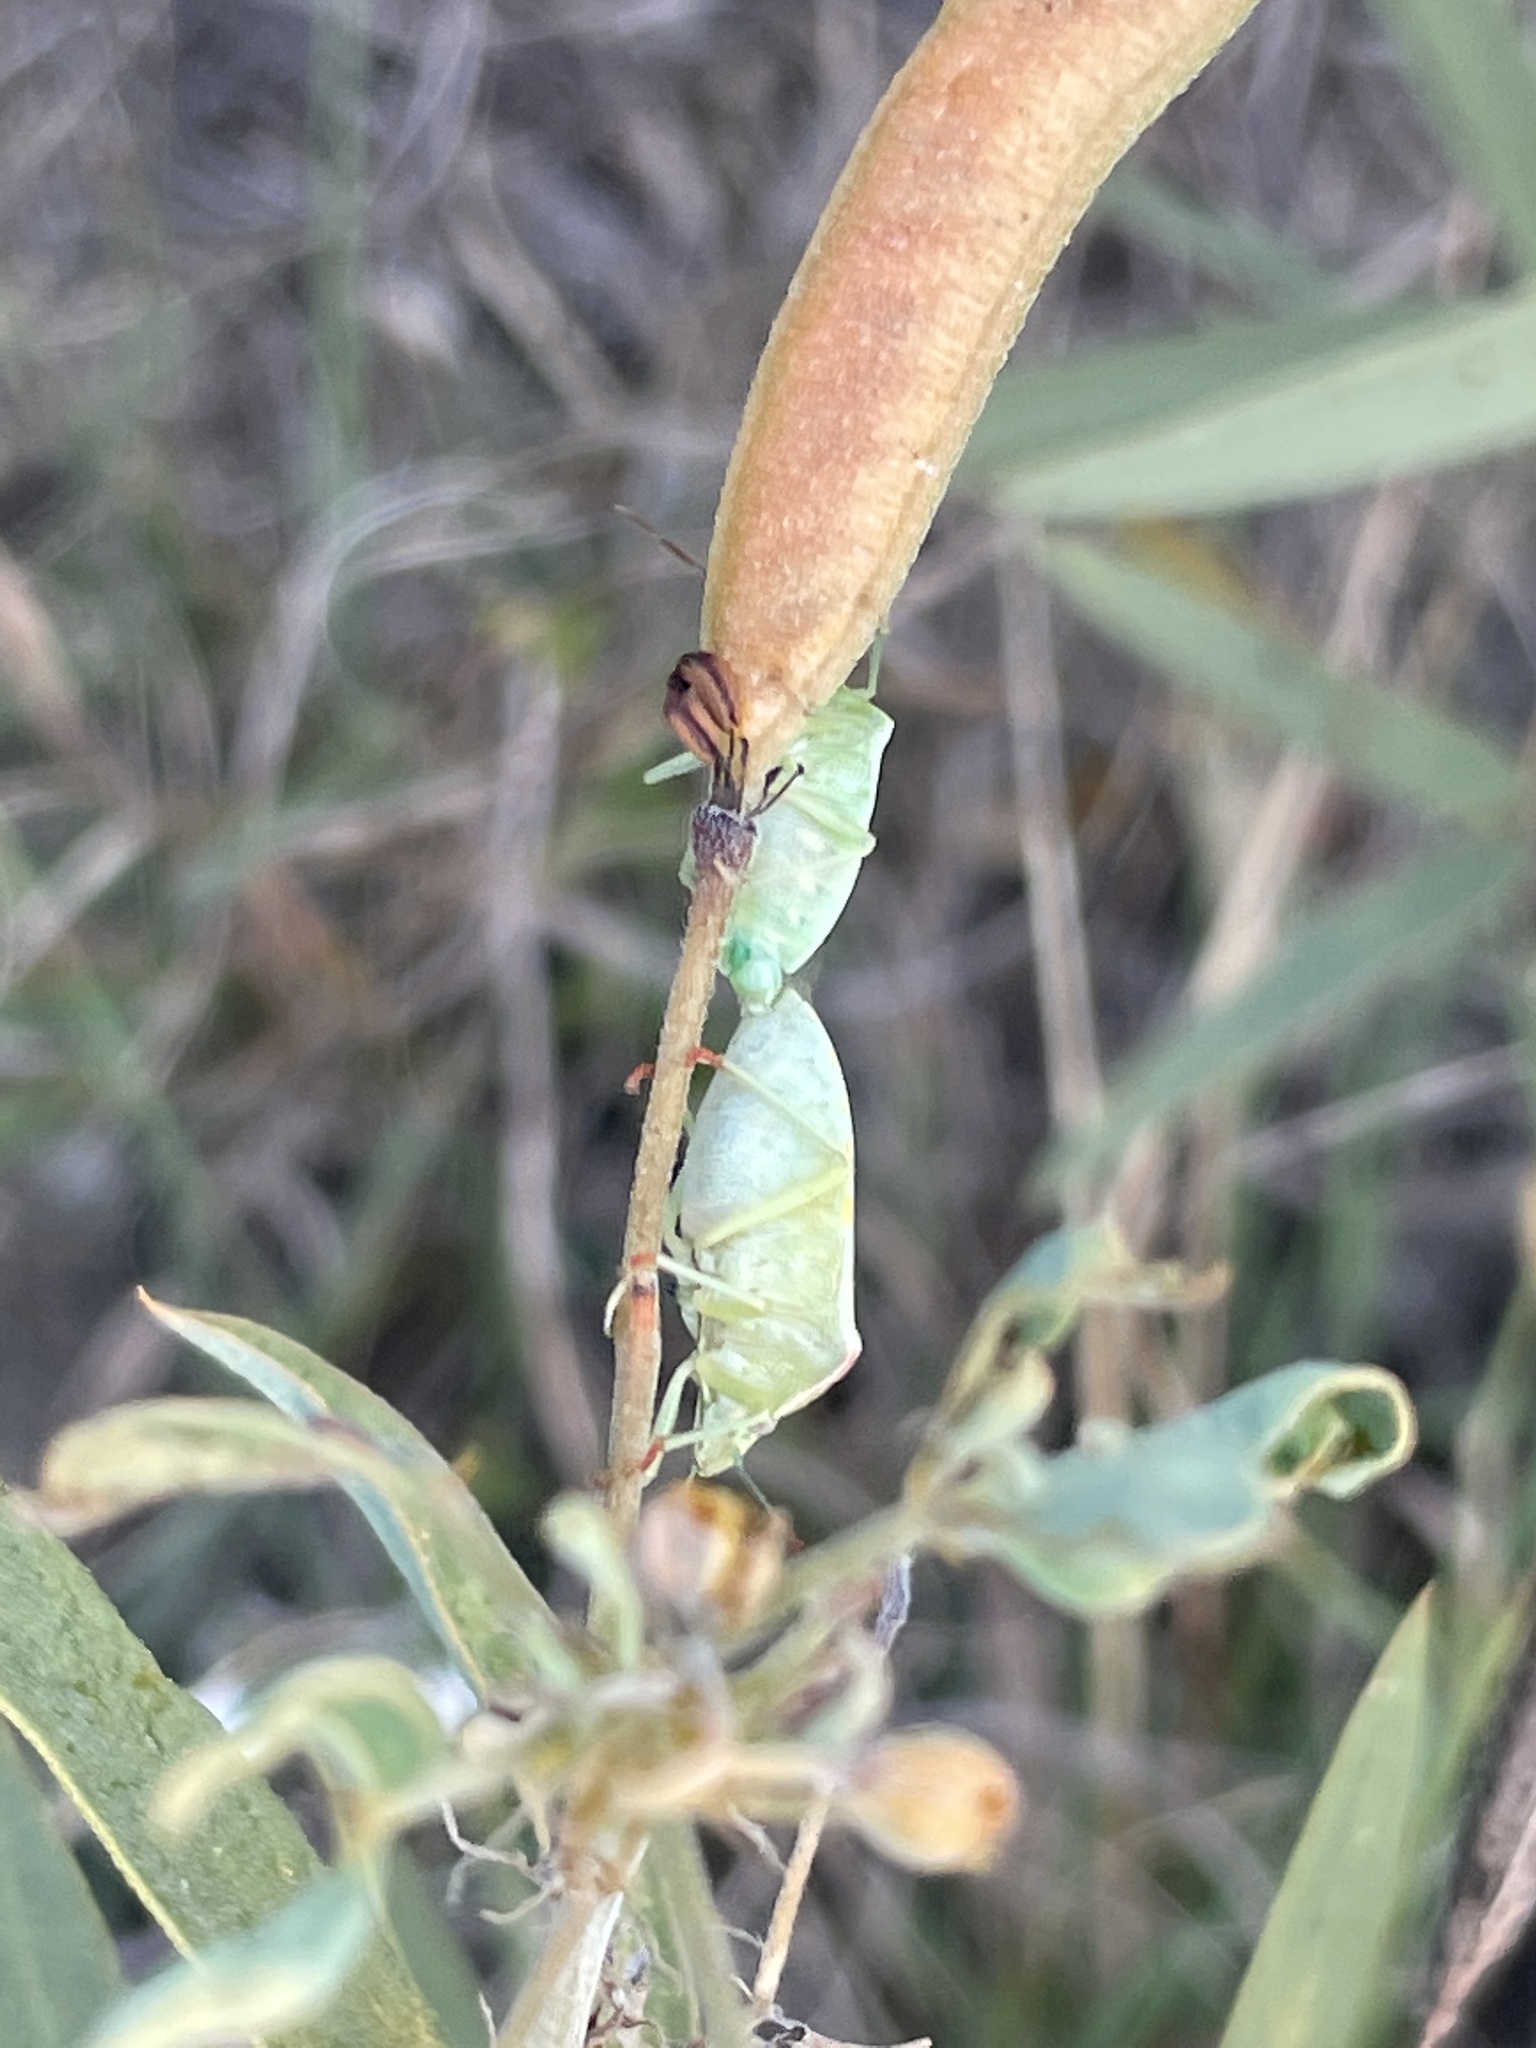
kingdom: Animalia
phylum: Arthropoda
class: Insecta
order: Hemiptera
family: Pentatomidae
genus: Thyanta
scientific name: Thyanta custator
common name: Stink bug
